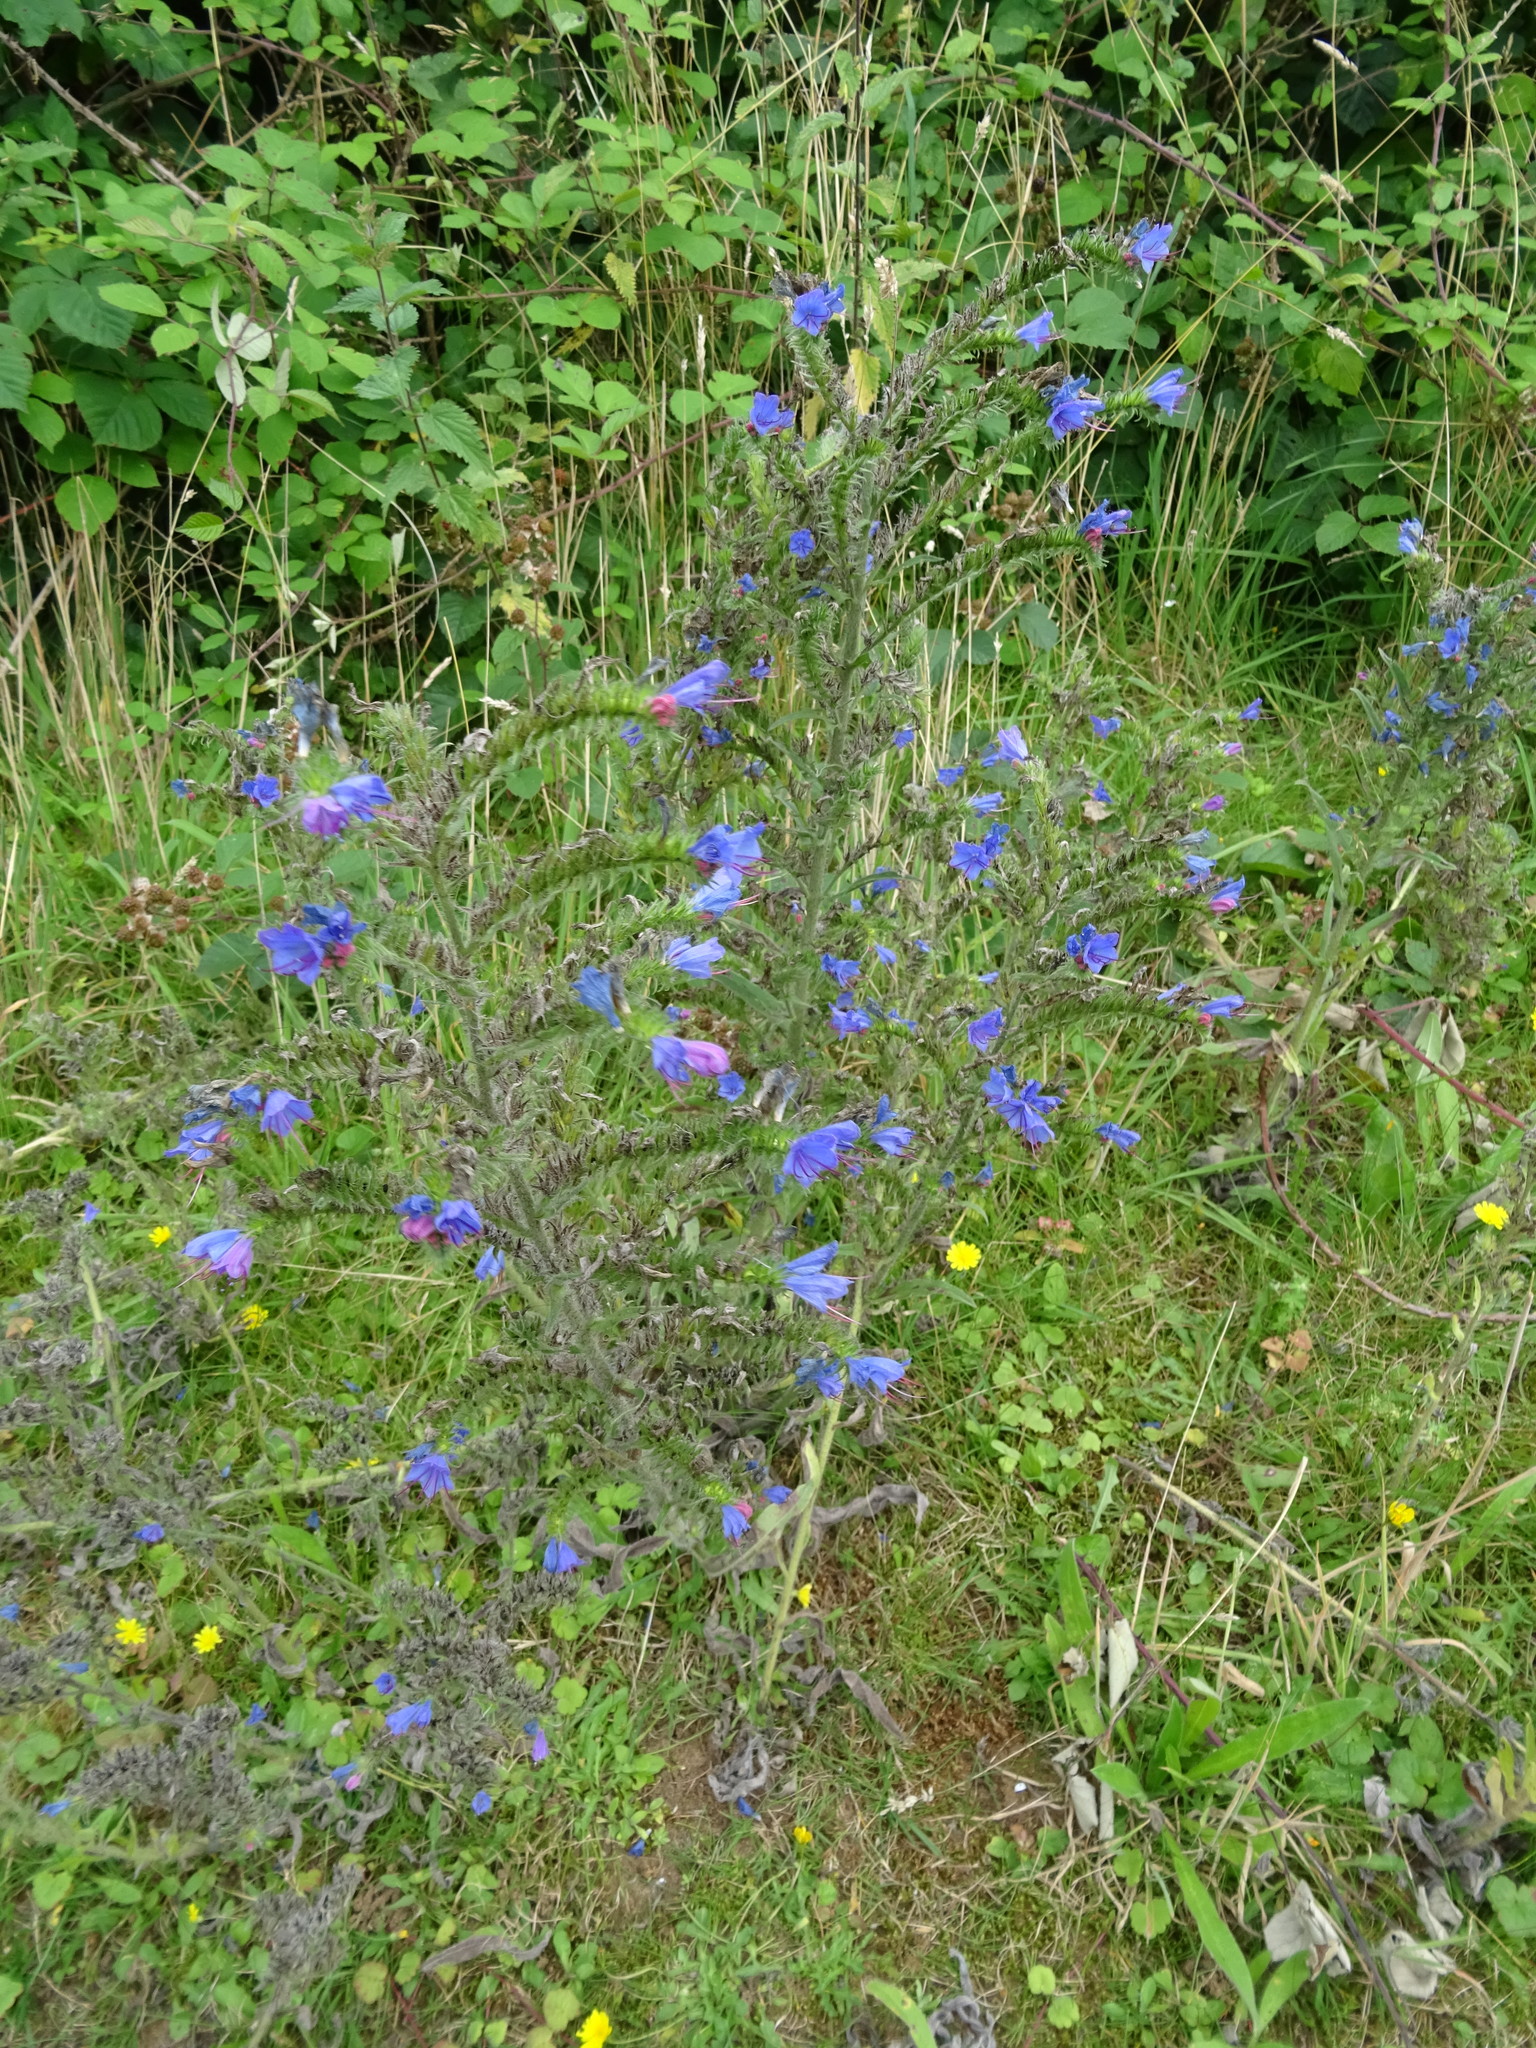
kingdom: Plantae
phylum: Tracheophyta
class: Magnoliopsida
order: Boraginales
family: Boraginaceae
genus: Echium
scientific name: Echium vulgare
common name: Common viper's bugloss
